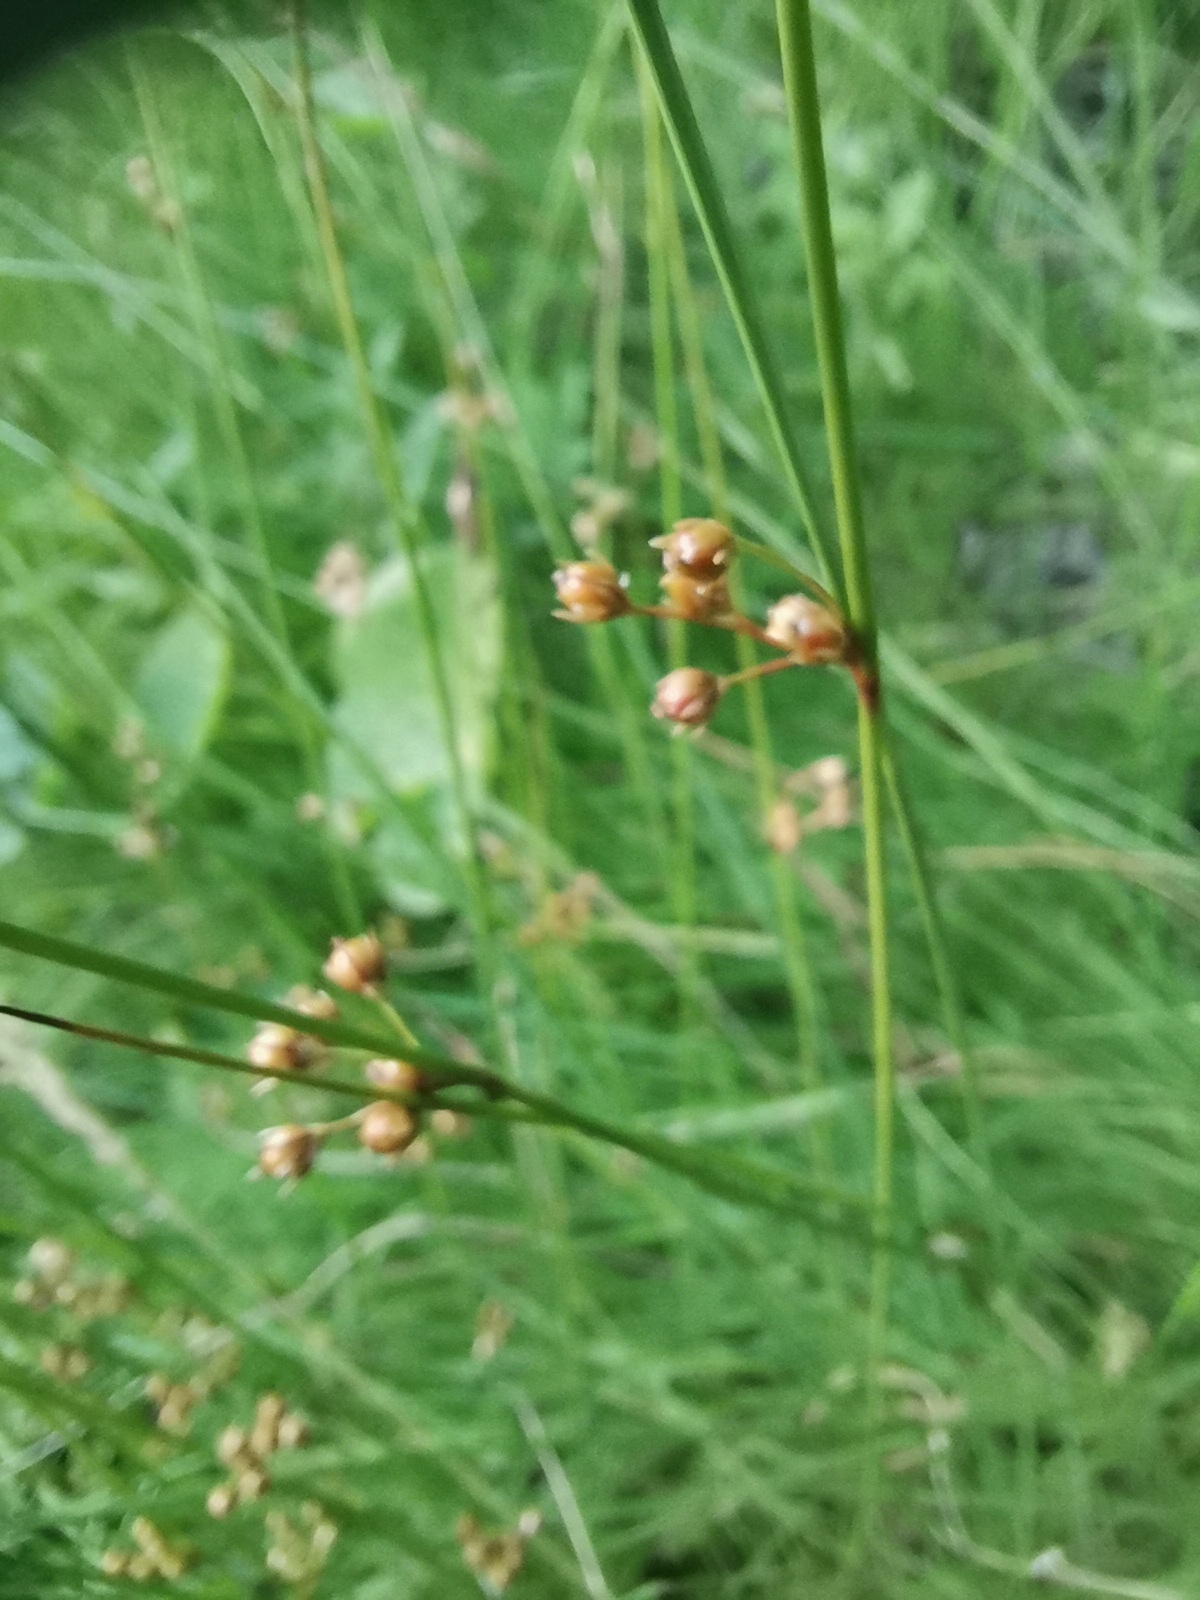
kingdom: Plantae
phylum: Tracheophyta
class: Liliopsida
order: Poales
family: Juncaceae
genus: Juncus
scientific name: Juncus filiformis
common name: Thread rush
